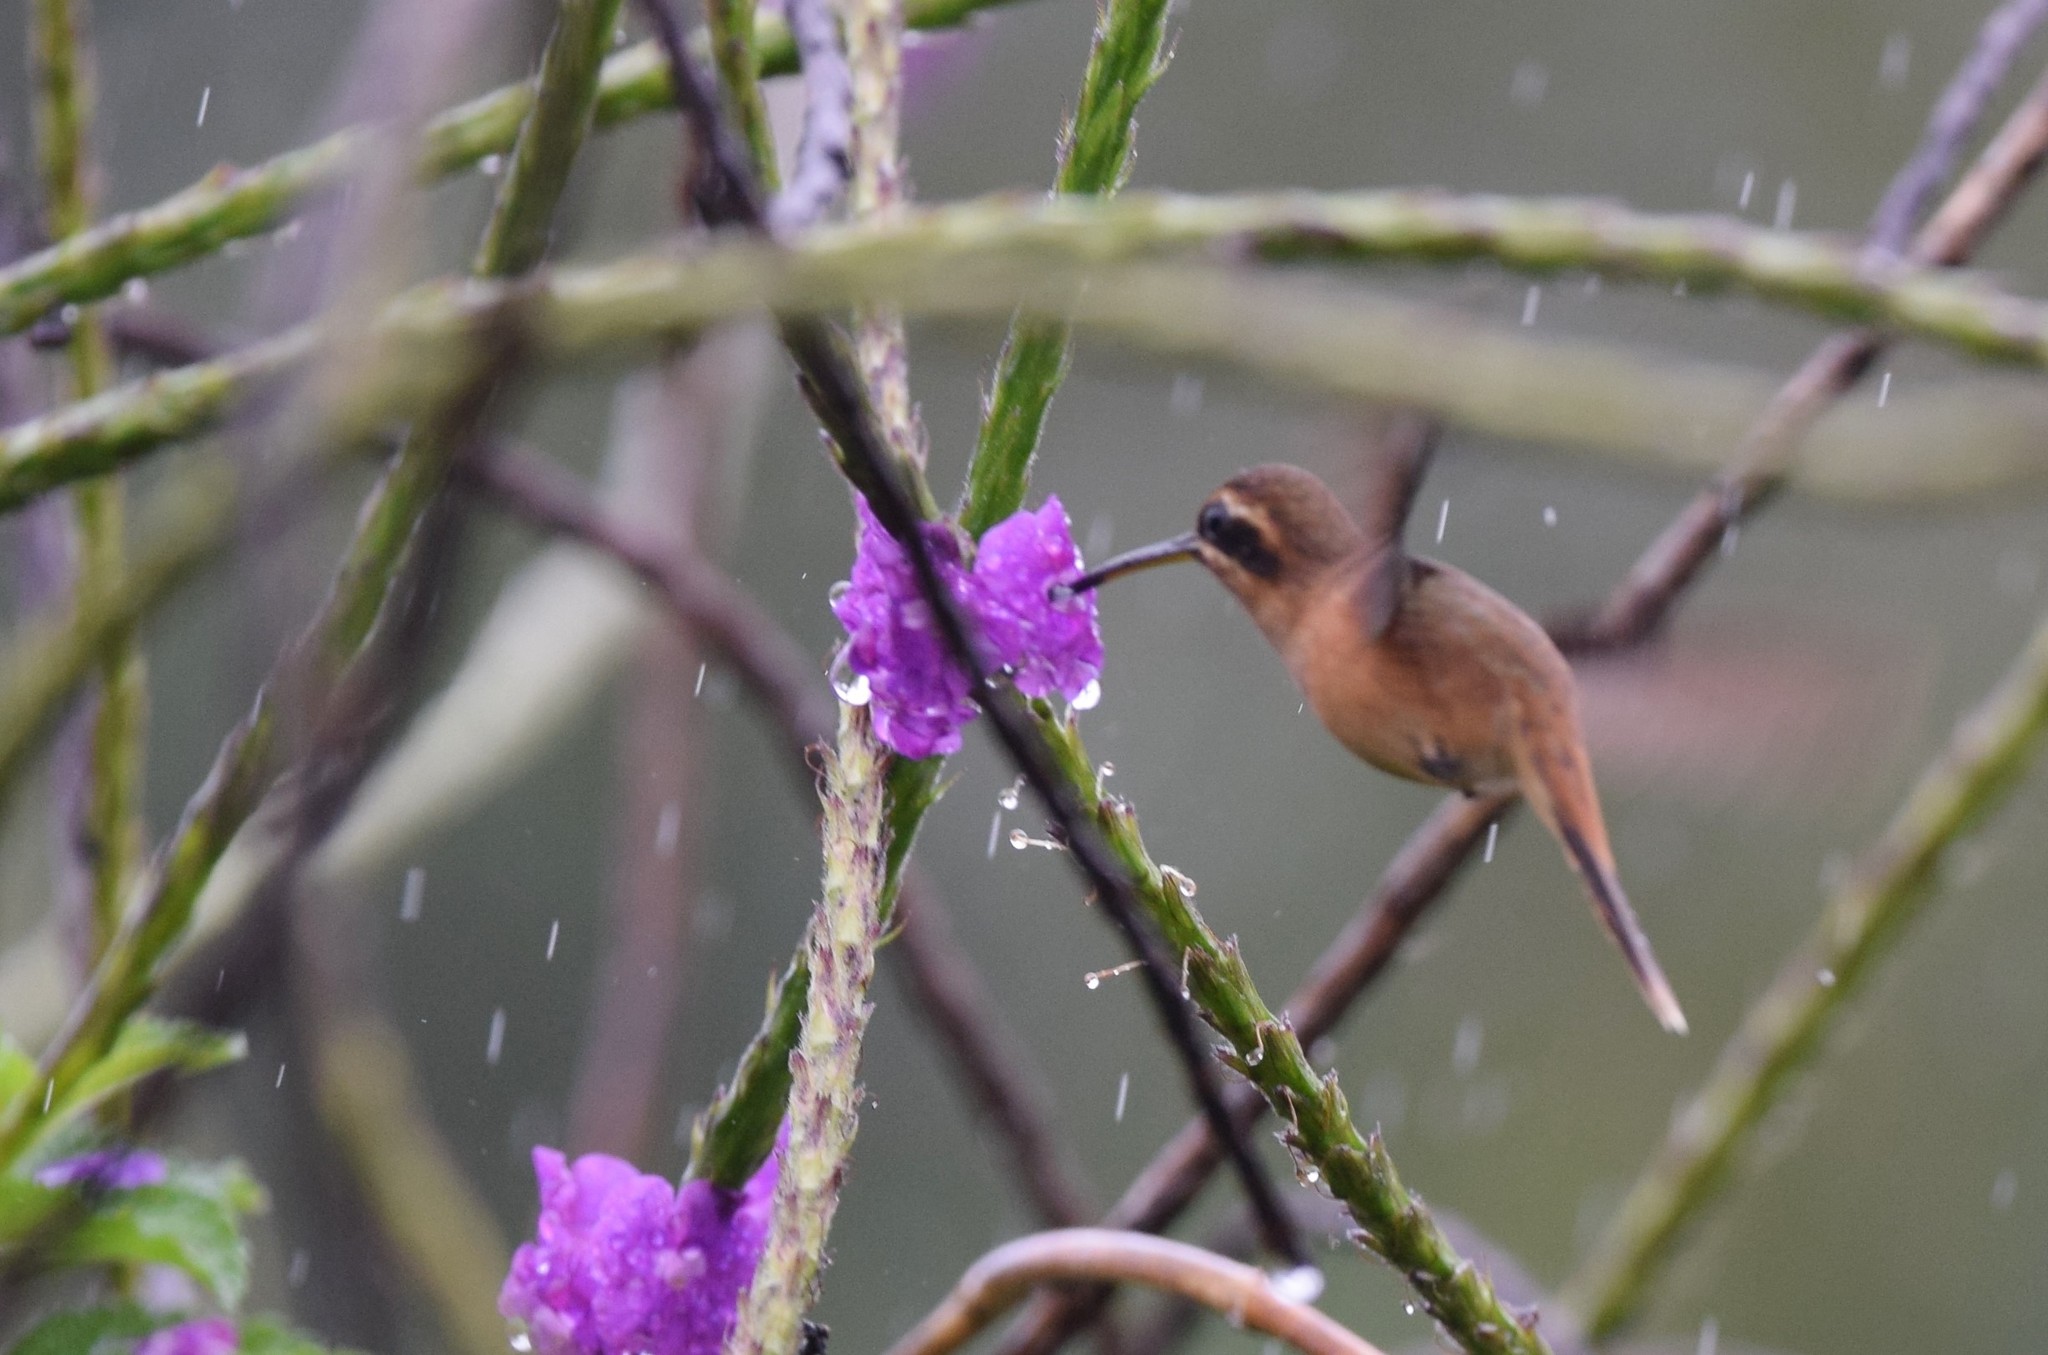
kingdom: Animalia
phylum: Chordata
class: Aves
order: Apodiformes
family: Trochilidae
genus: Phaethornis
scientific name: Phaethornis striigularis
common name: Stripe-throated hermit
